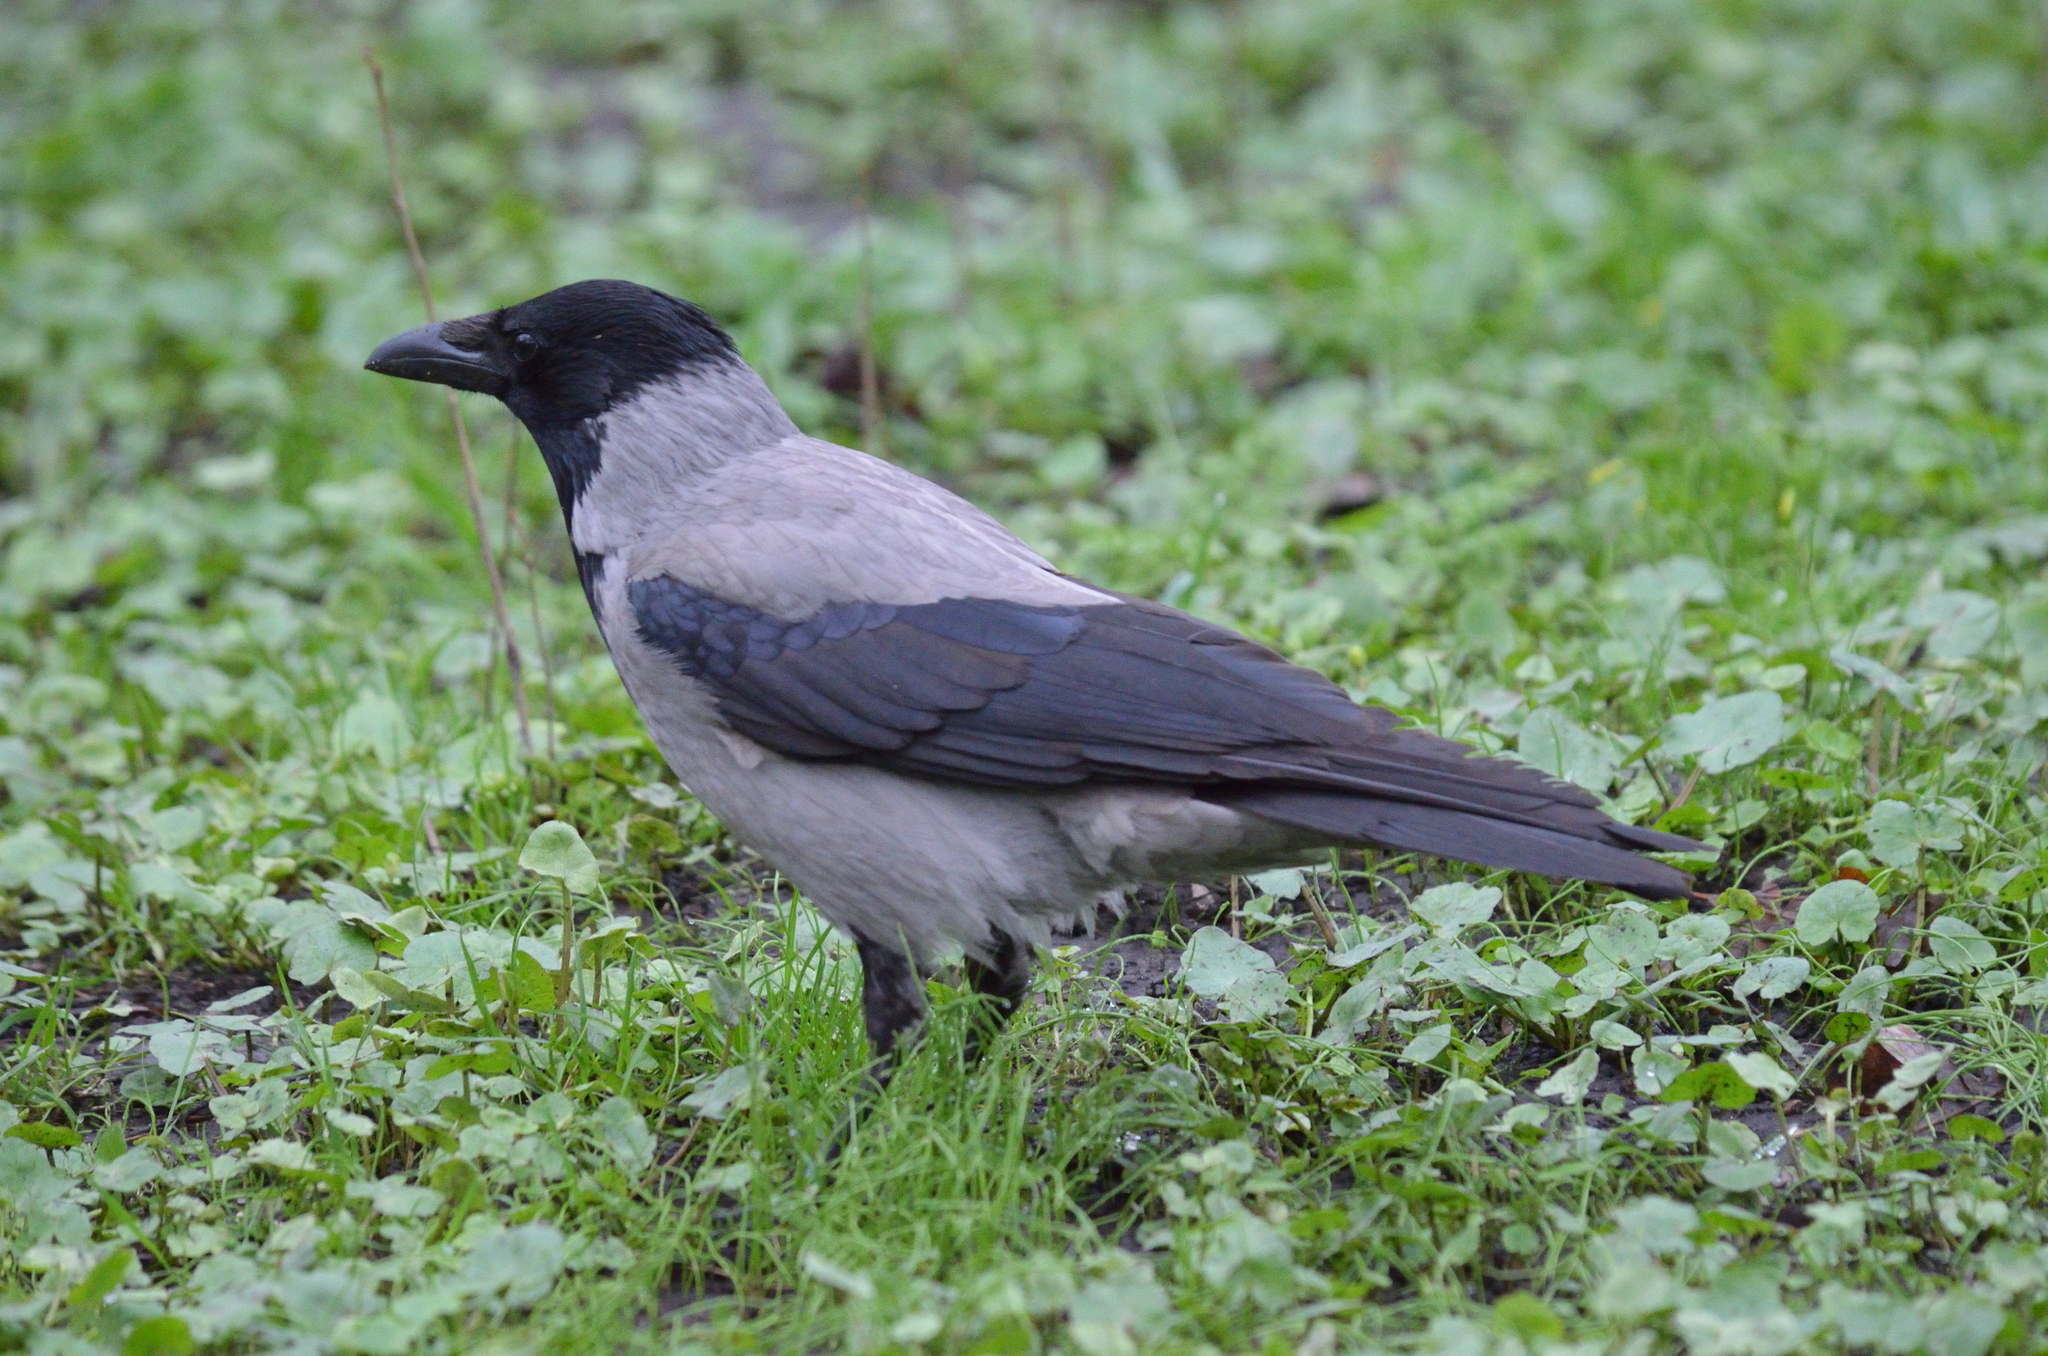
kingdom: Animalia
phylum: Chordata
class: Aves
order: Passeriformes
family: Corvidae
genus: Corvus
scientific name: Corvus cornix
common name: Hooded crow
